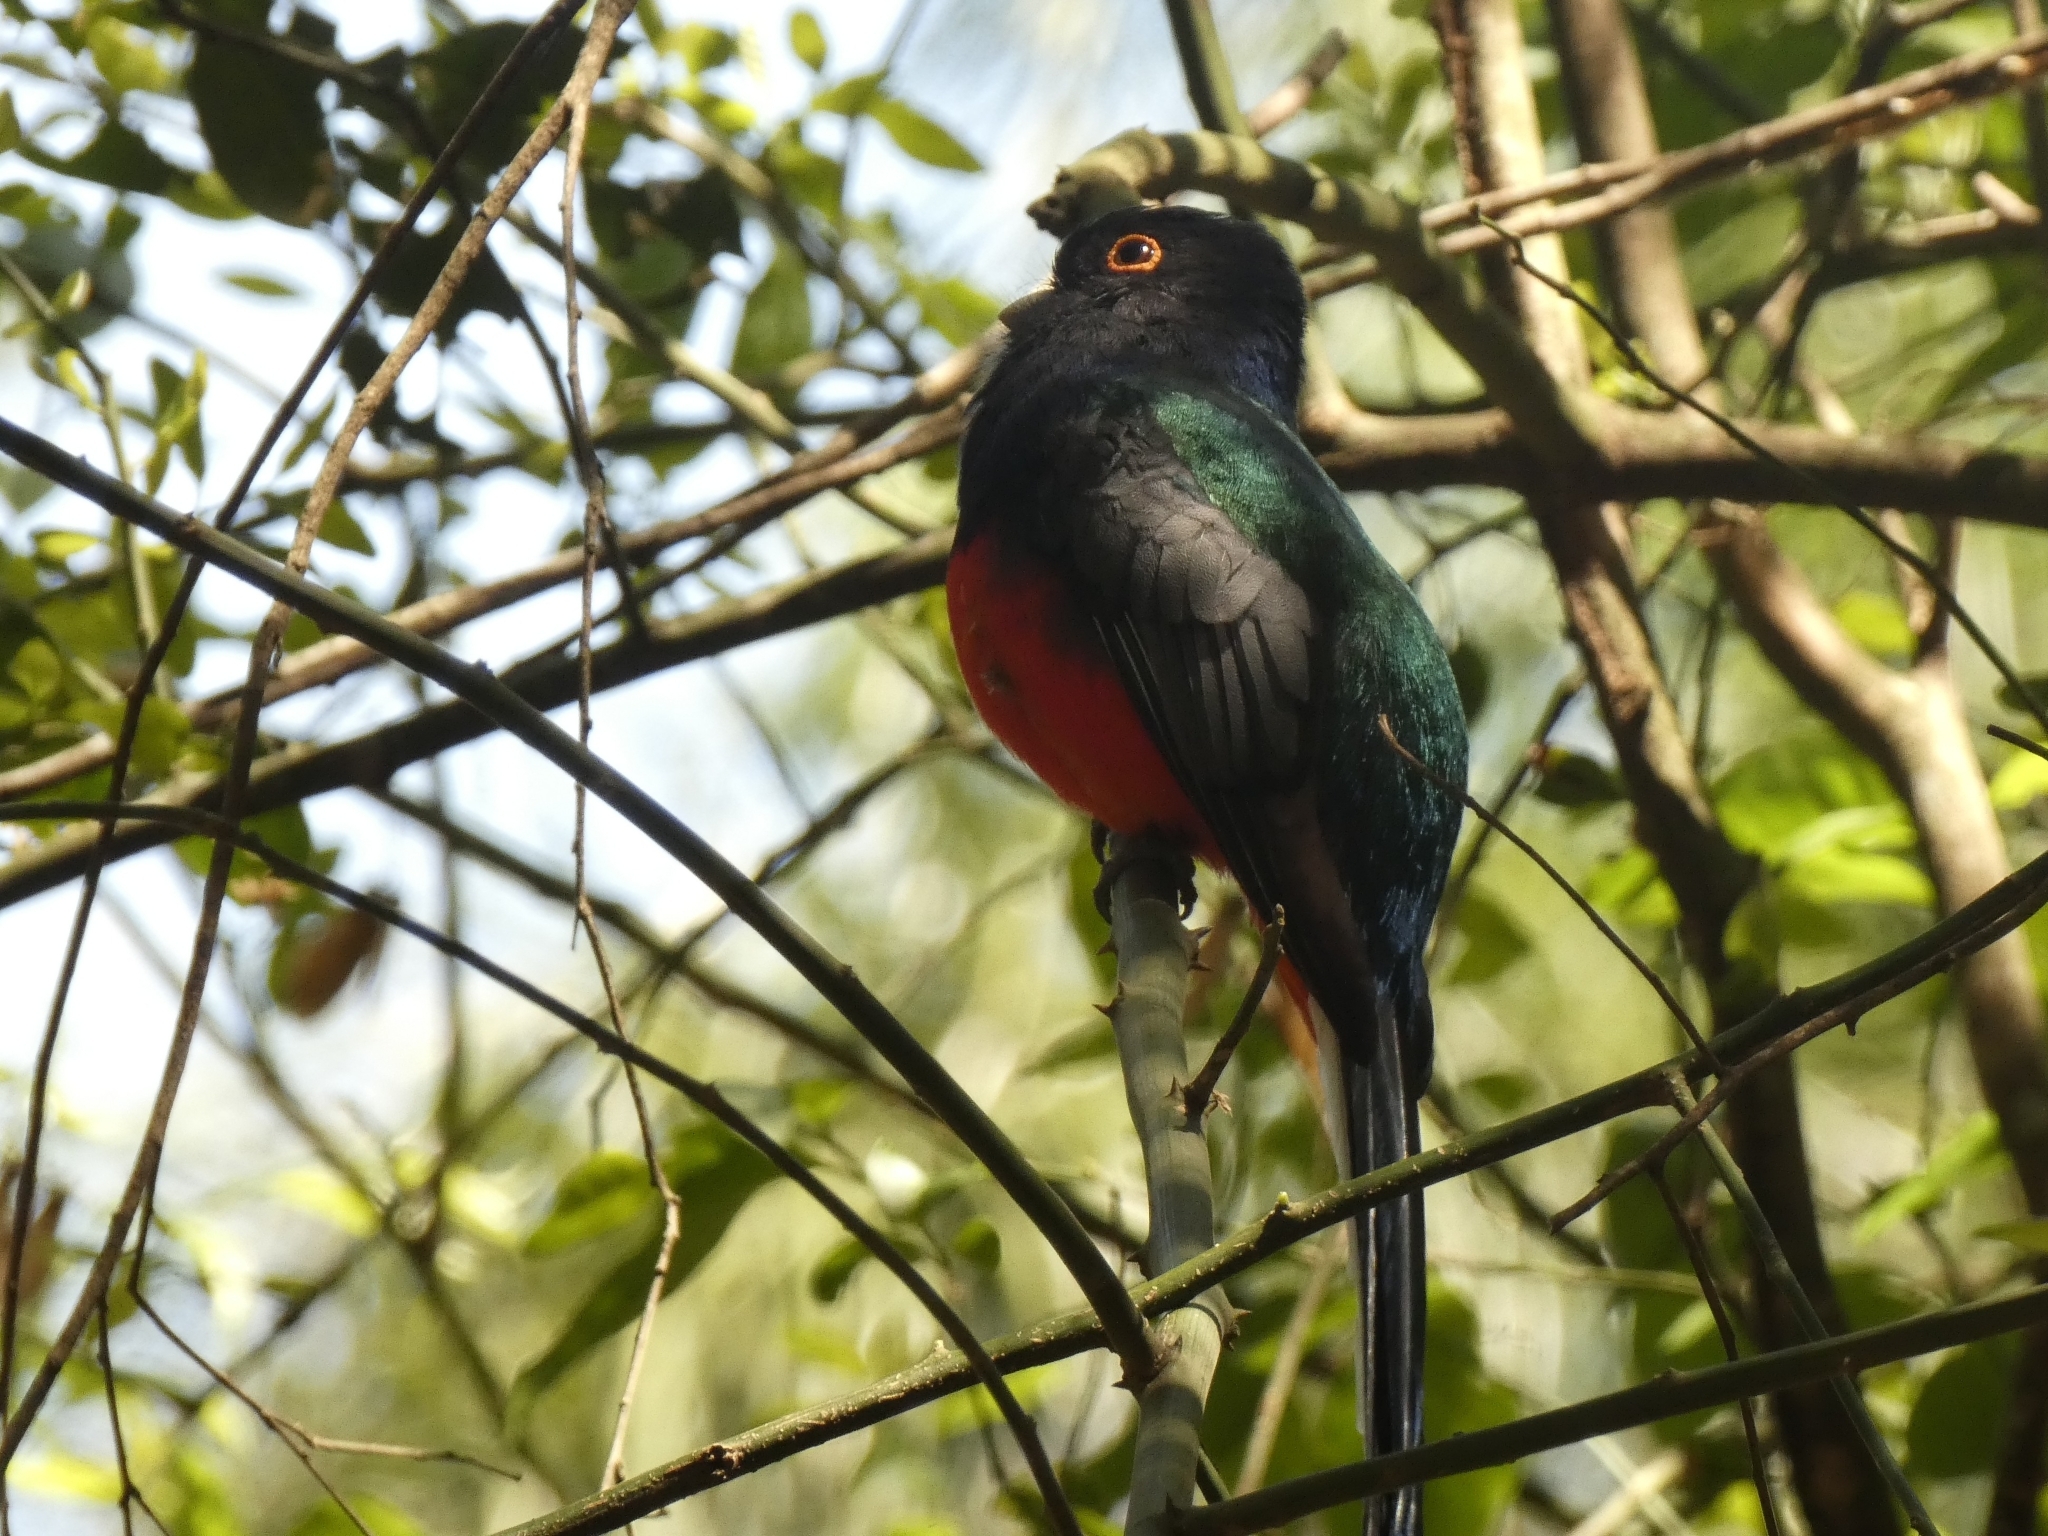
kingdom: Animalia
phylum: Chordata
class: Aves
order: Trogoniformes
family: Trogonidae
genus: Trogon
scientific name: Trogon surrucura
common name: Surucua trogon
